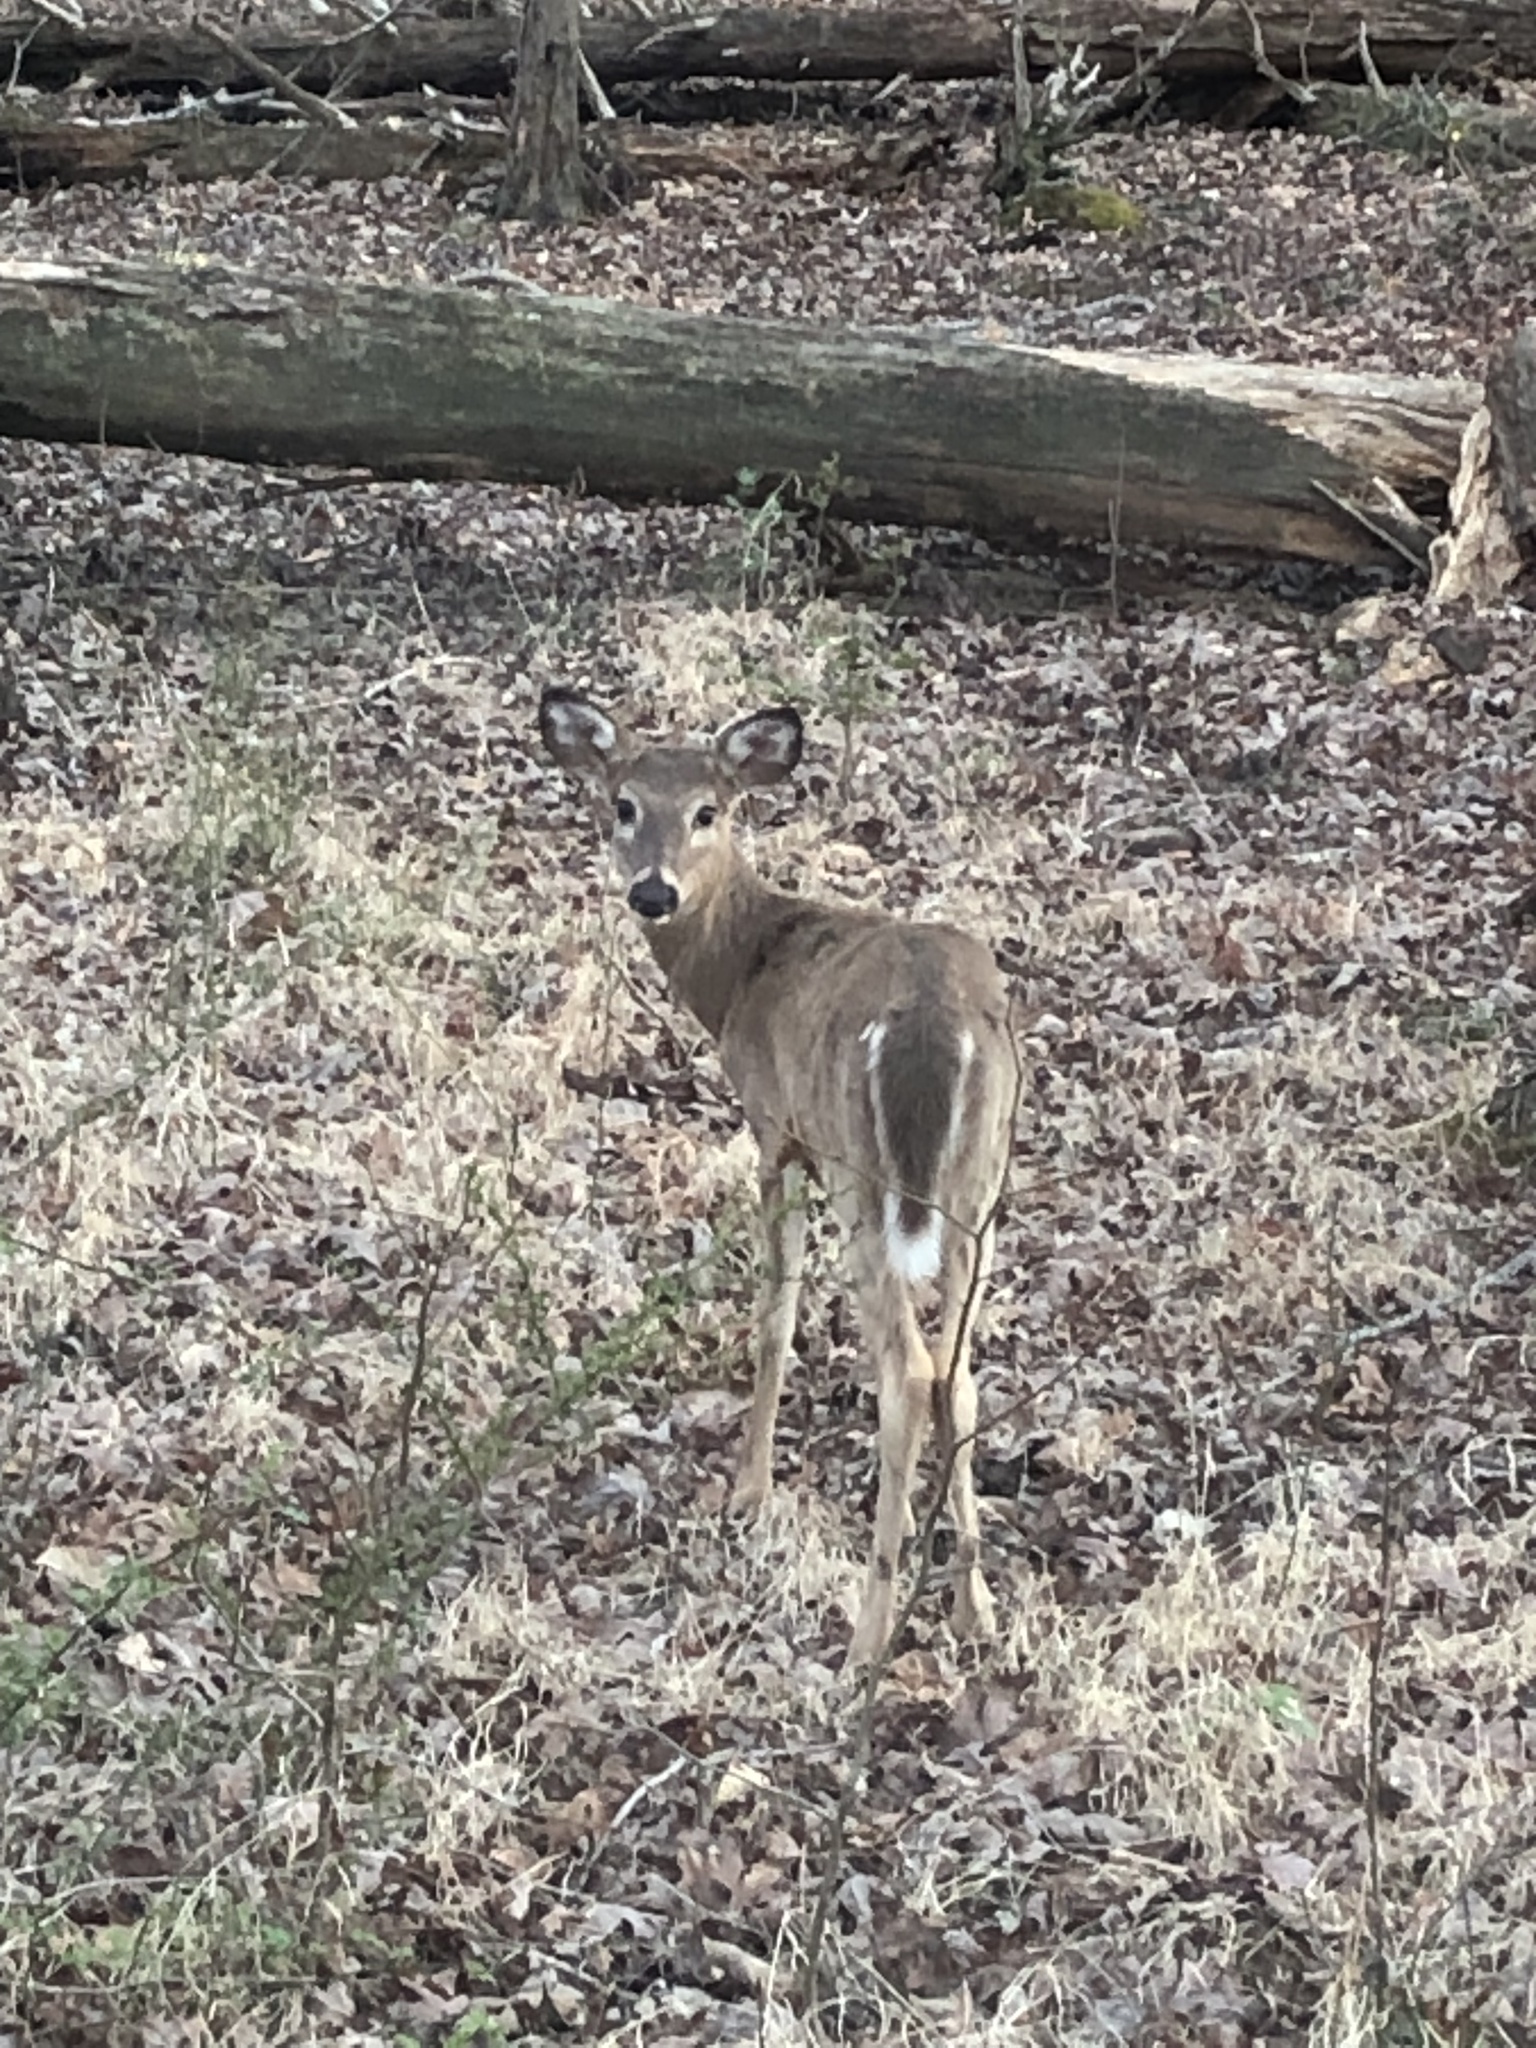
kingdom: Animalia
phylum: Chordata
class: Mammalia
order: Artiodactyla
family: Cervidae
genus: Odocoileus
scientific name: Odocoileus virginianus
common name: White-tailed deer
